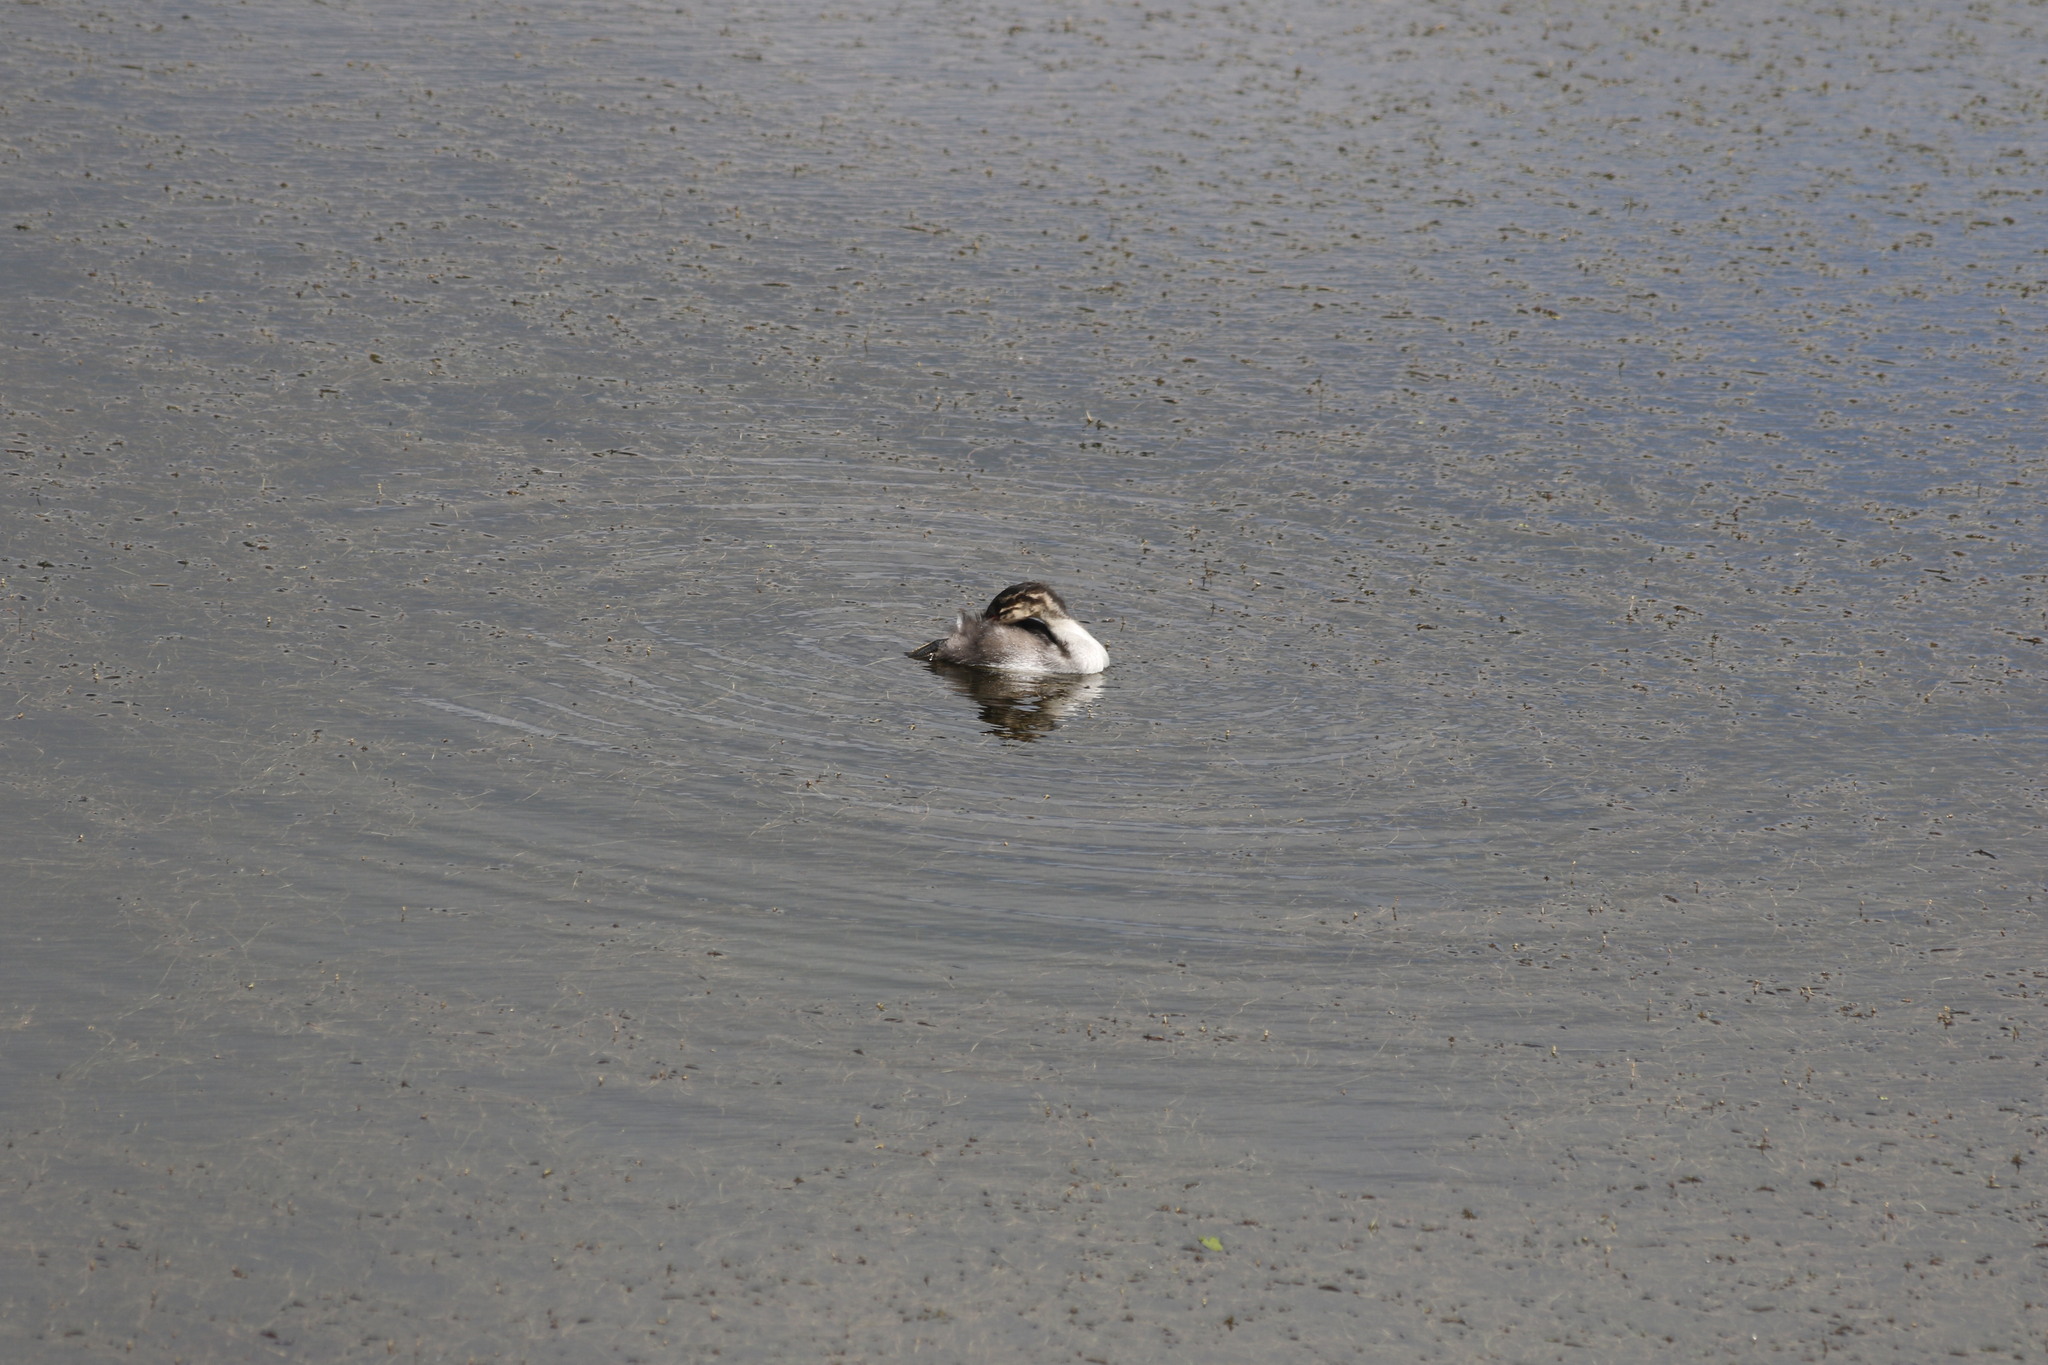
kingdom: Animalia
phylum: Chordata
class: Aves
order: Podicipediformes
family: Podicipedidae
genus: Podiceps
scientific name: Podiceps auritus
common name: Horned grebe
